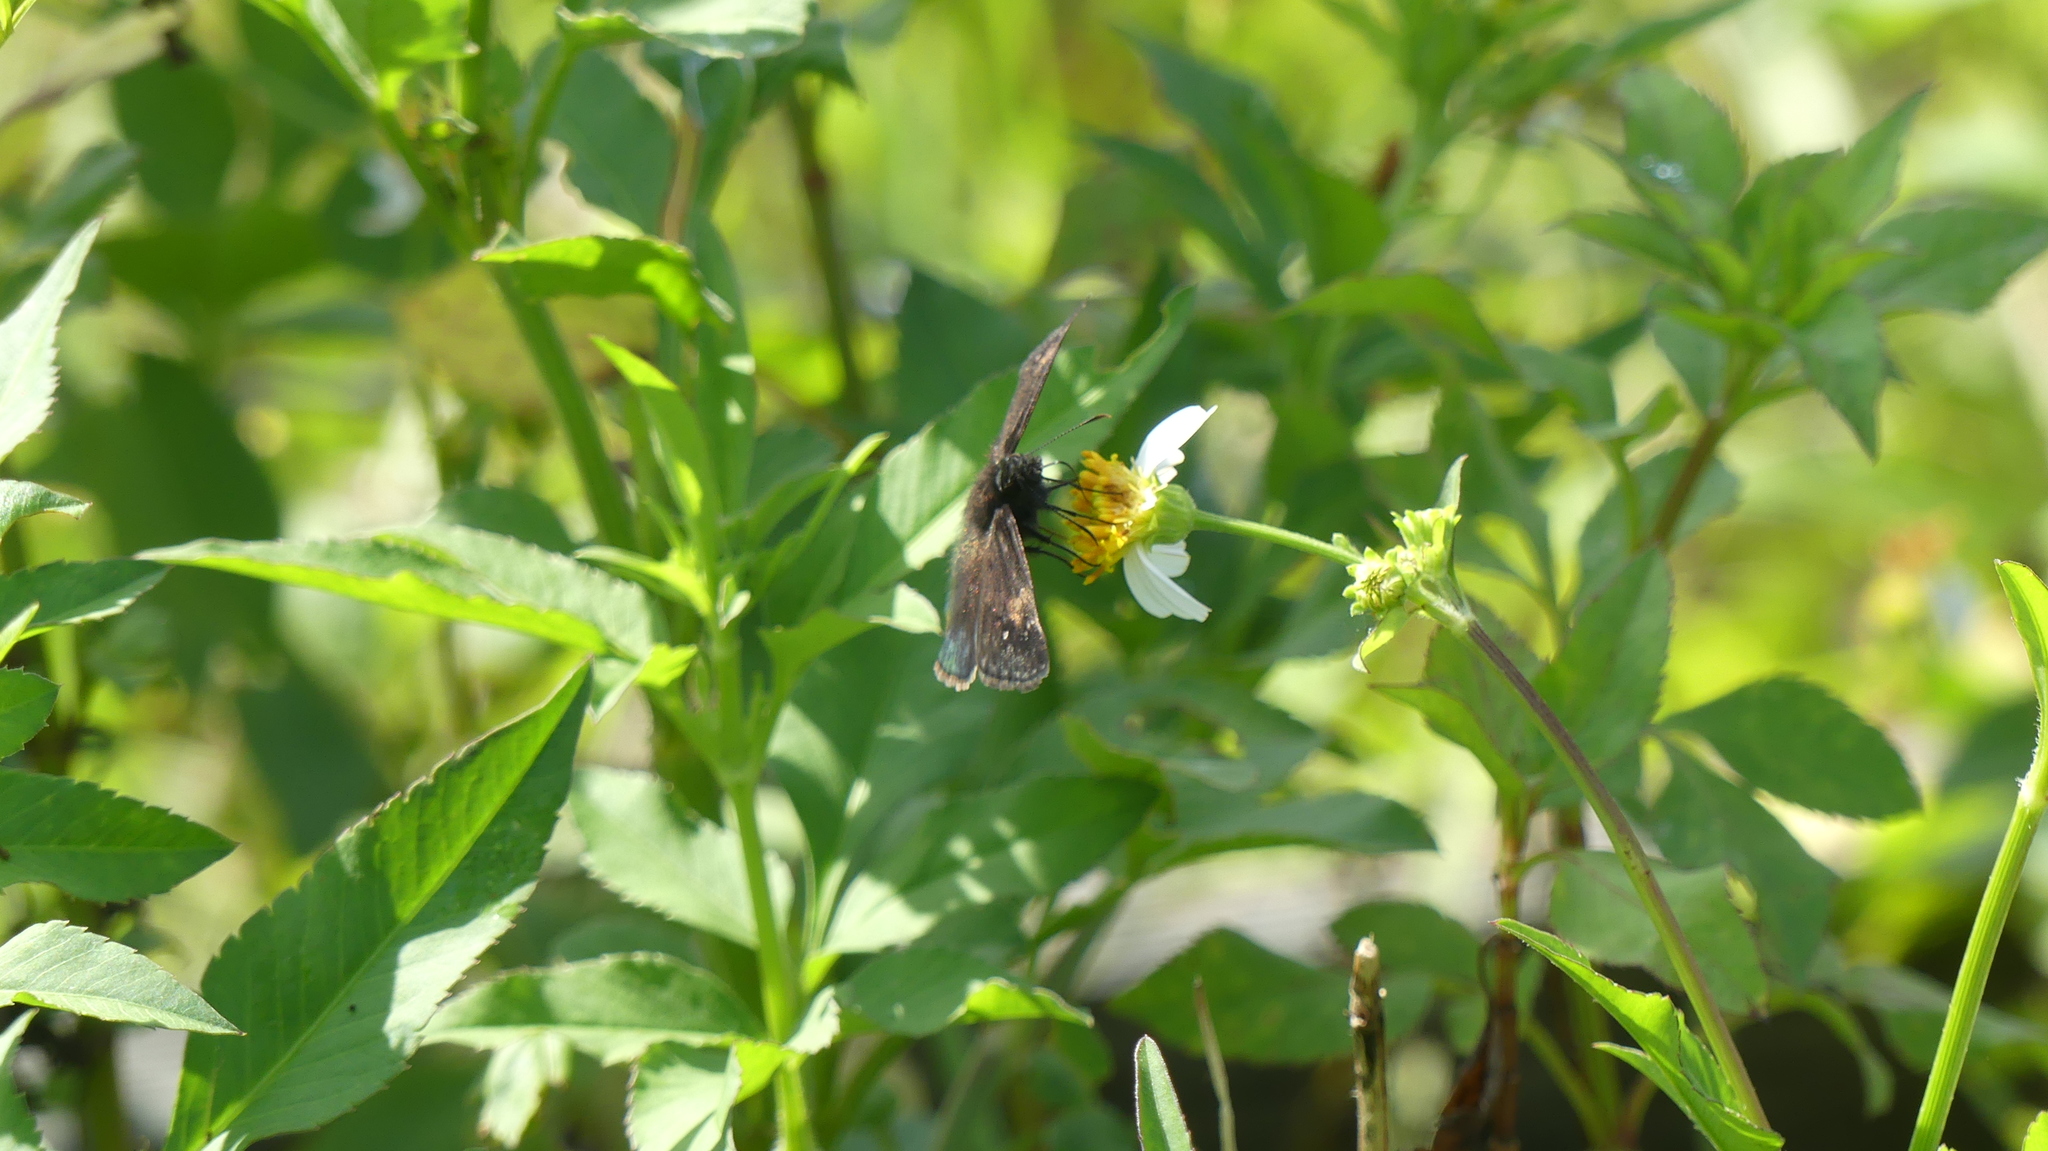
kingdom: Animalia
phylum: Arthropoda
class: Insecta
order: Lepidoptera
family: Hesperiidae
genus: Erynnis
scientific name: Erynnis zarucco
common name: Zarucco duskywing
